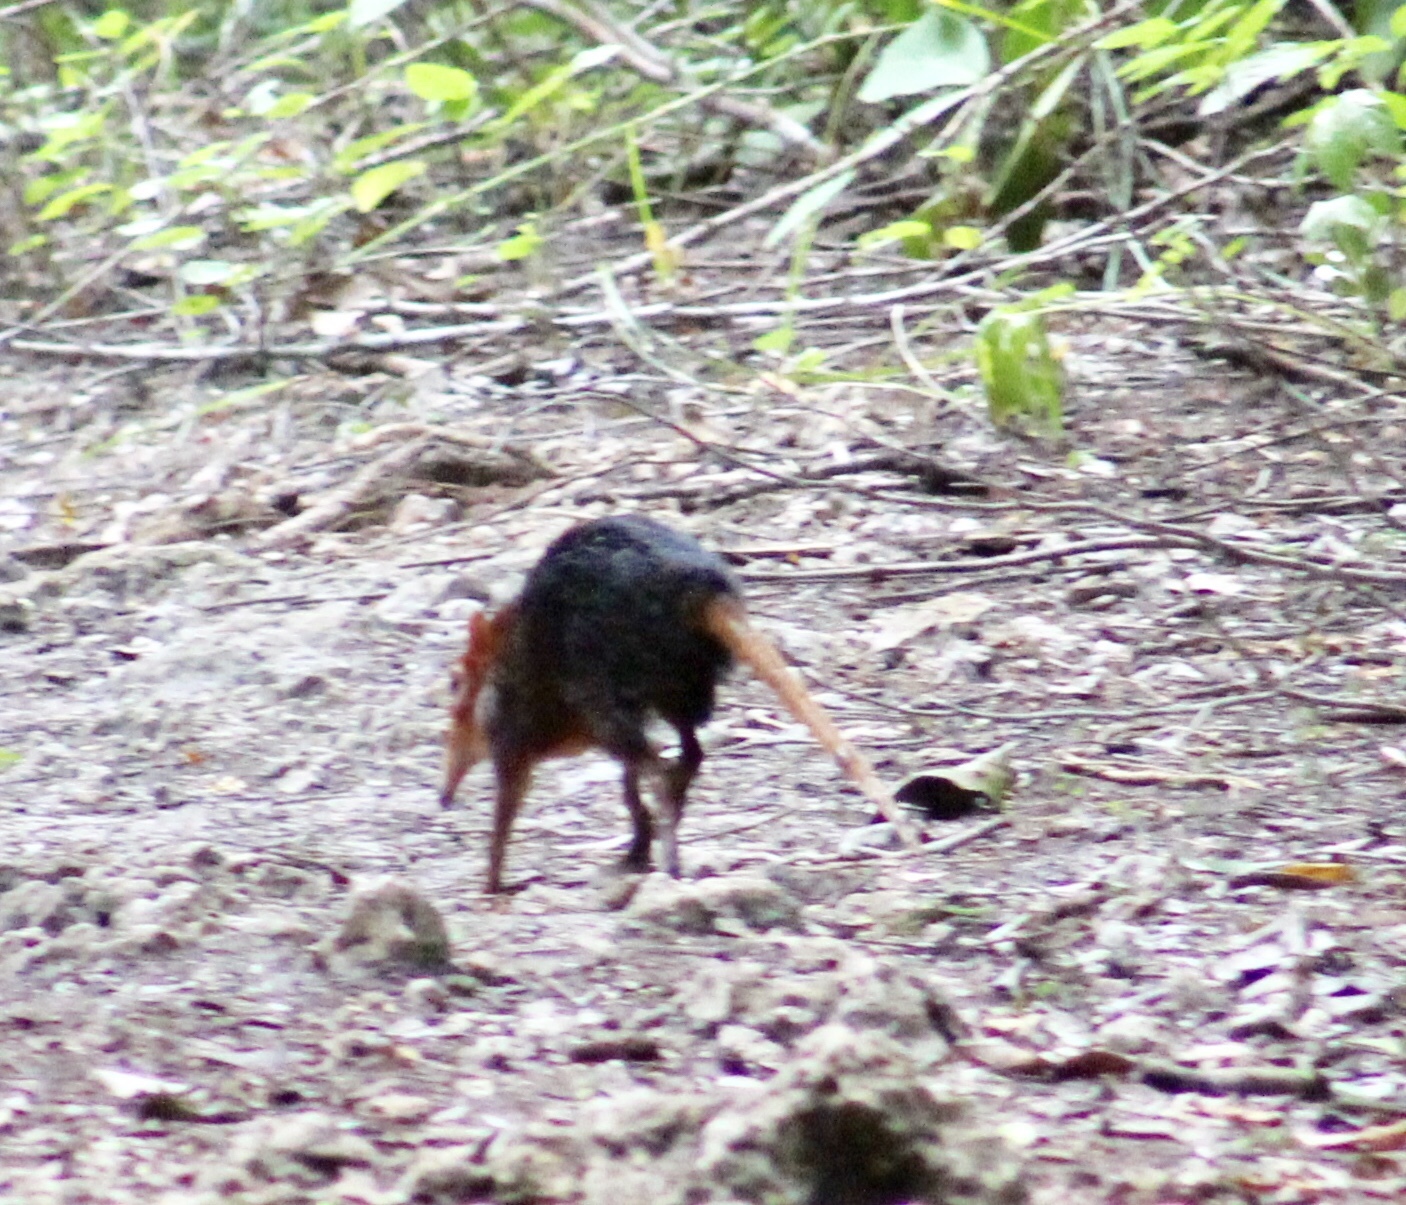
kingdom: Animalia
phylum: Chordata
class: Mammalia
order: Macroscelidea
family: Macroscelididae
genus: Rhynchocyon
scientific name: Rhynchocyon petersi
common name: Black and rufous elephant shrew/sengi
